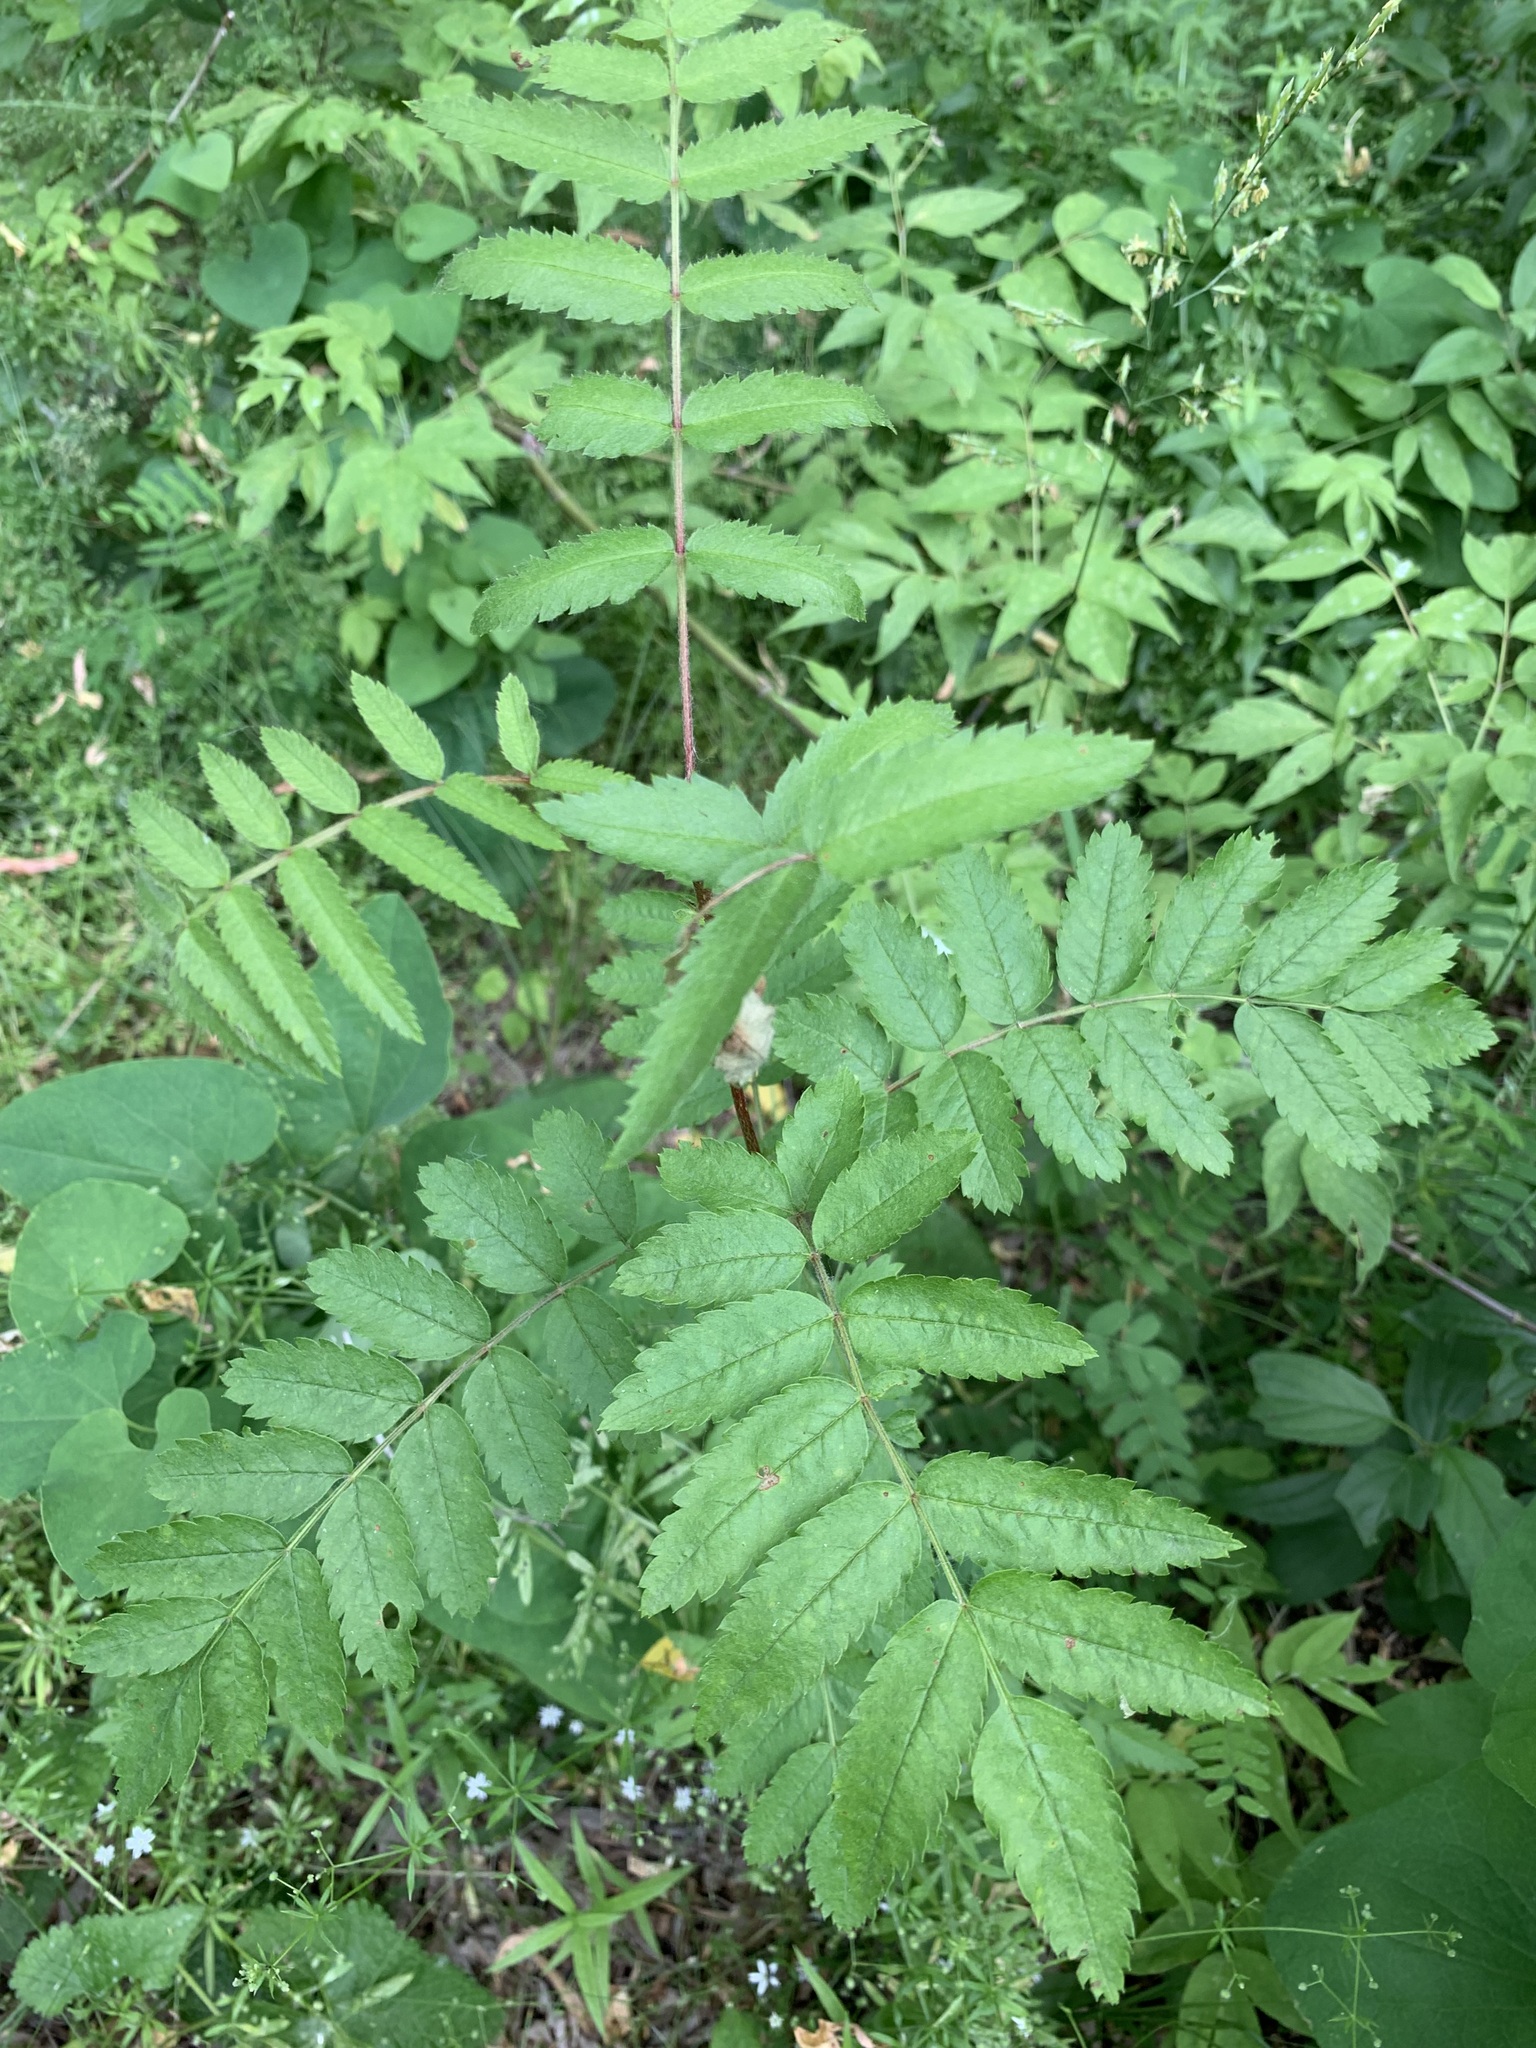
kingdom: Plantae
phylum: Tracheophyta
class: Magnoliopsida
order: Rosales
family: Rosaceae
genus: Sorbus
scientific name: Sorbus aucuparia
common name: Rowan
